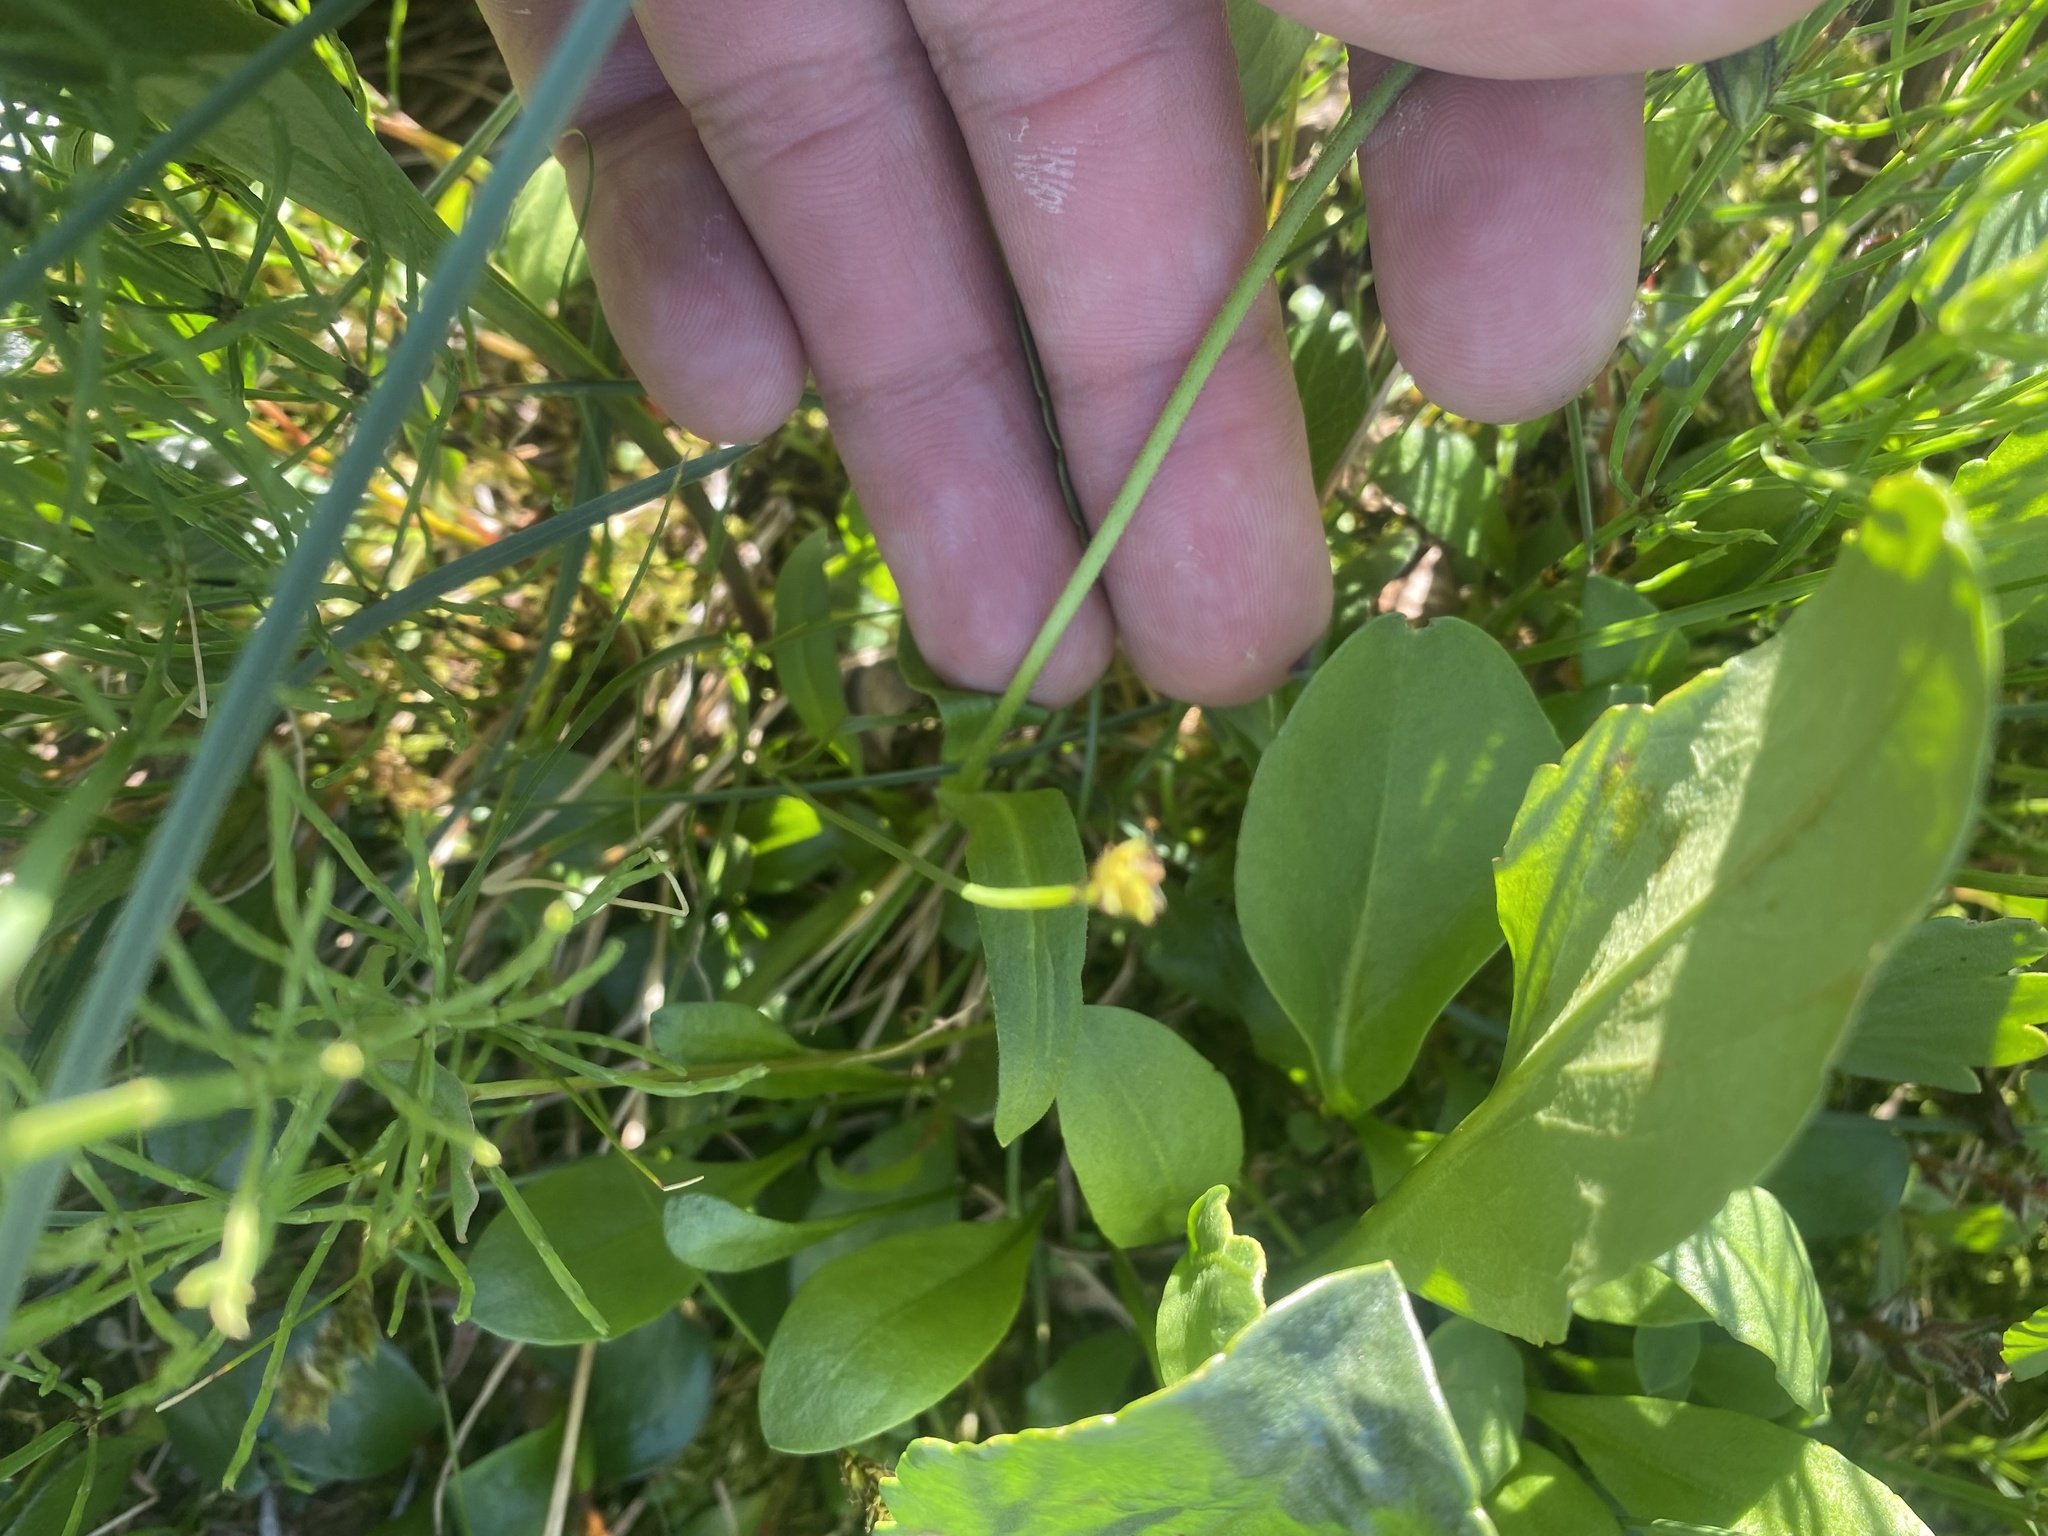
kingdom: Plantae
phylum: Tracheophyta
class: Magnoliopsida
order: Caryophyllales
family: Caryophyllaceae
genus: Silene
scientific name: Silene wahlbergella
